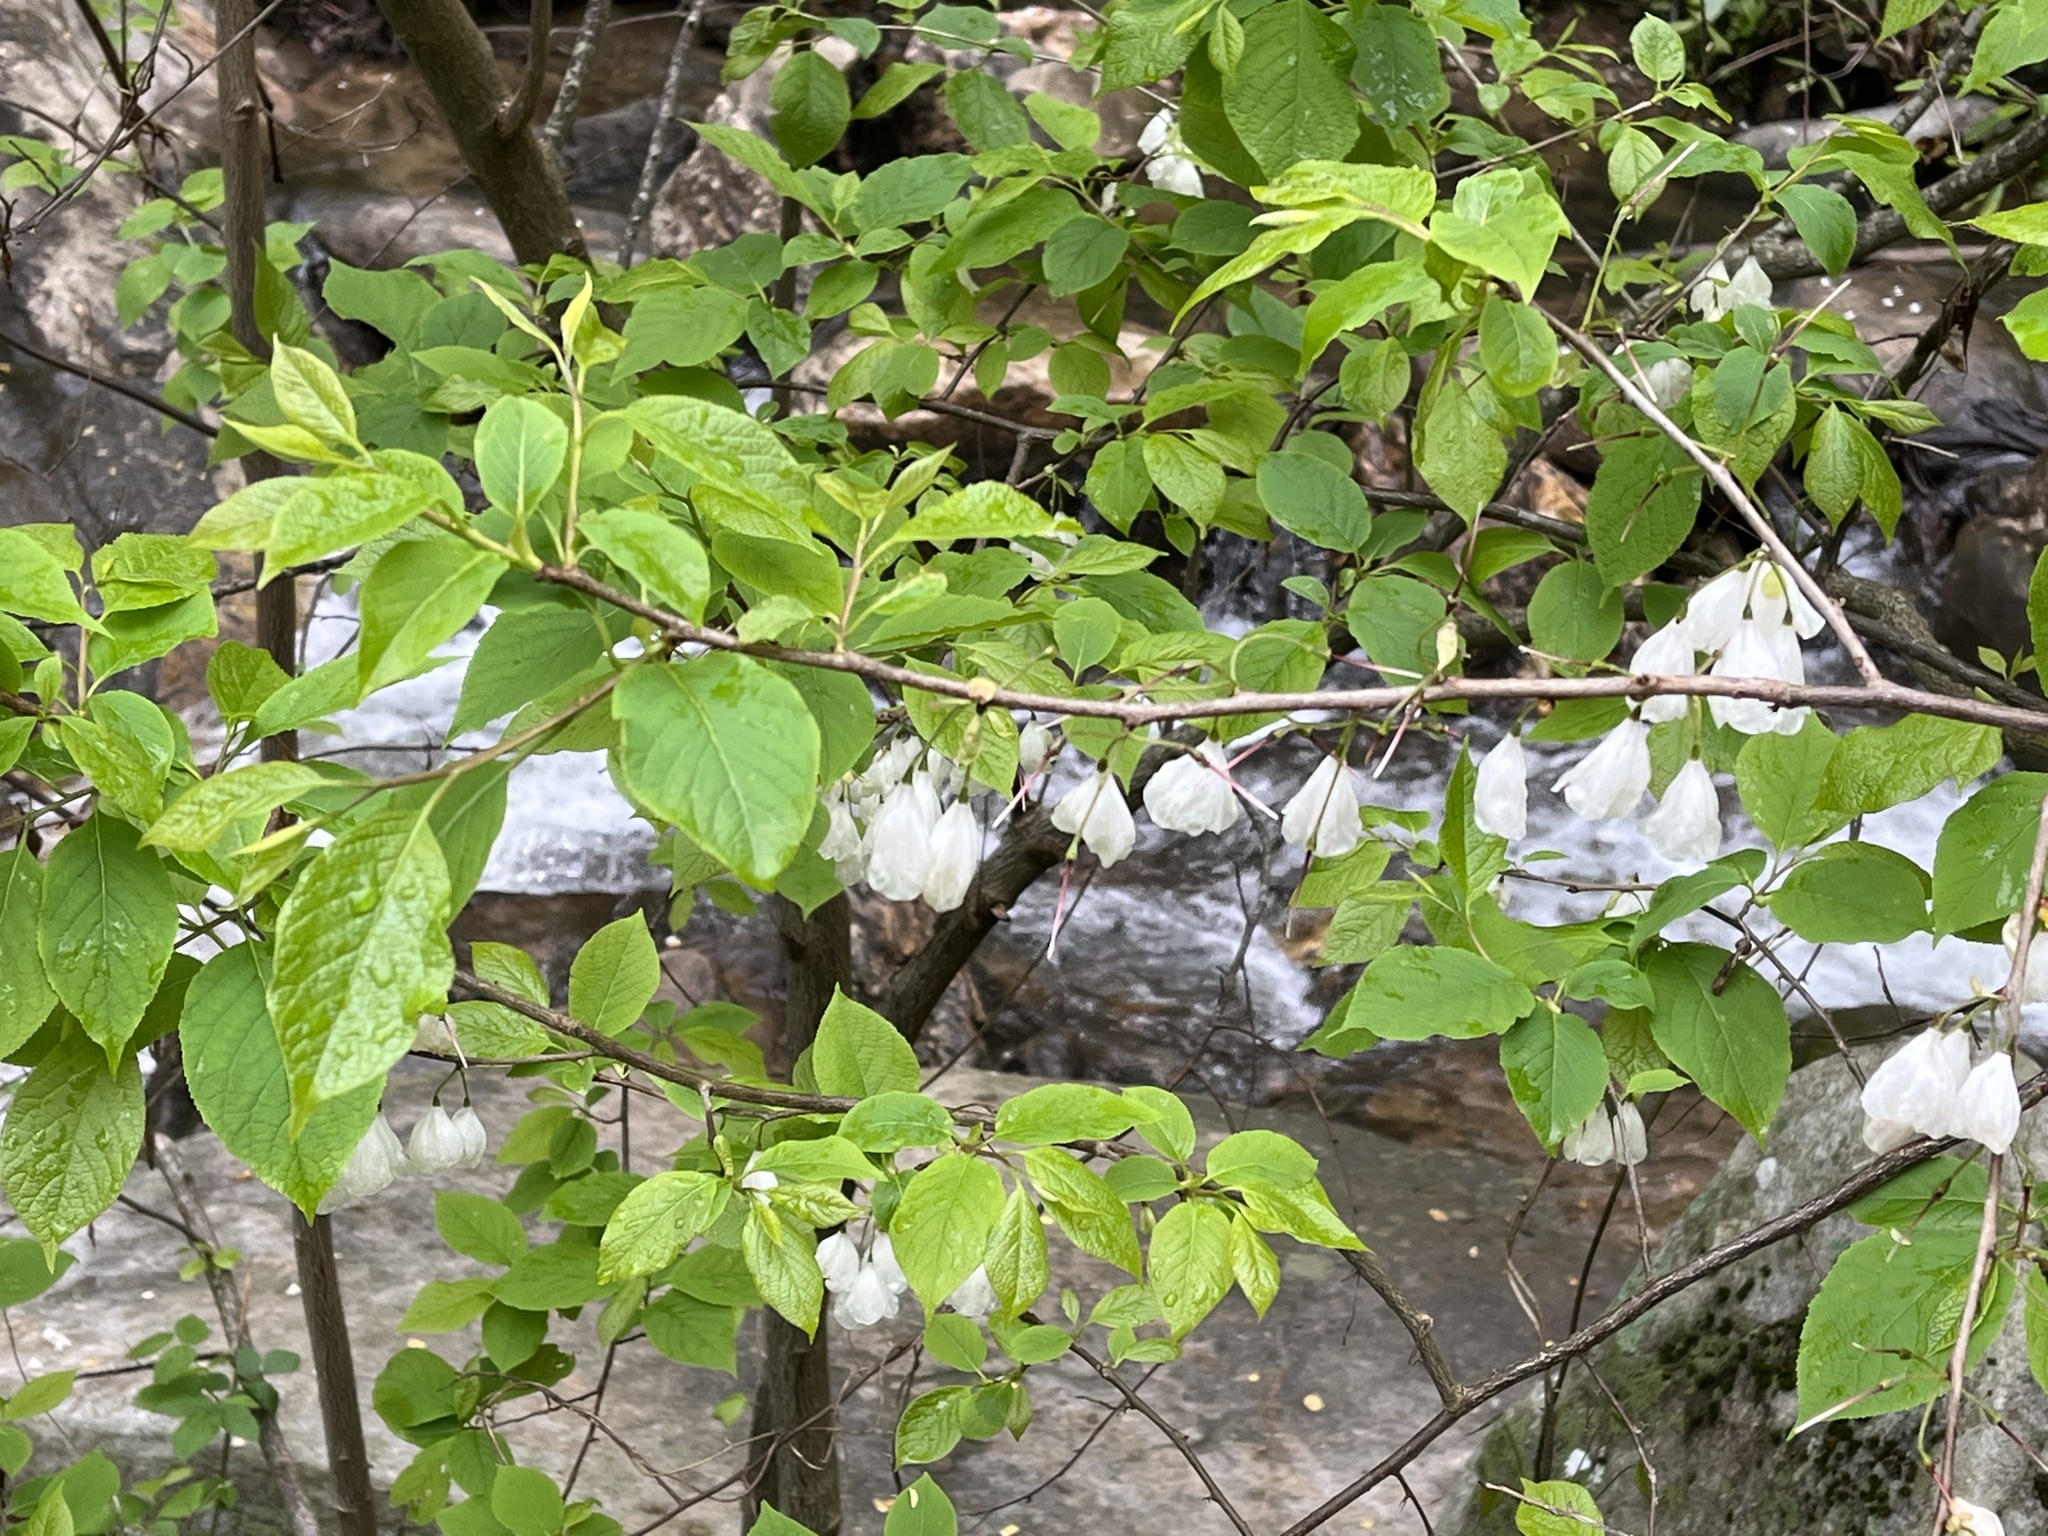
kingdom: Plantae
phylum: Tracheophyta
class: Magnoliopsida
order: Ericales
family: Styracaceae
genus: Halesia
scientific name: Halesia tetraptera
